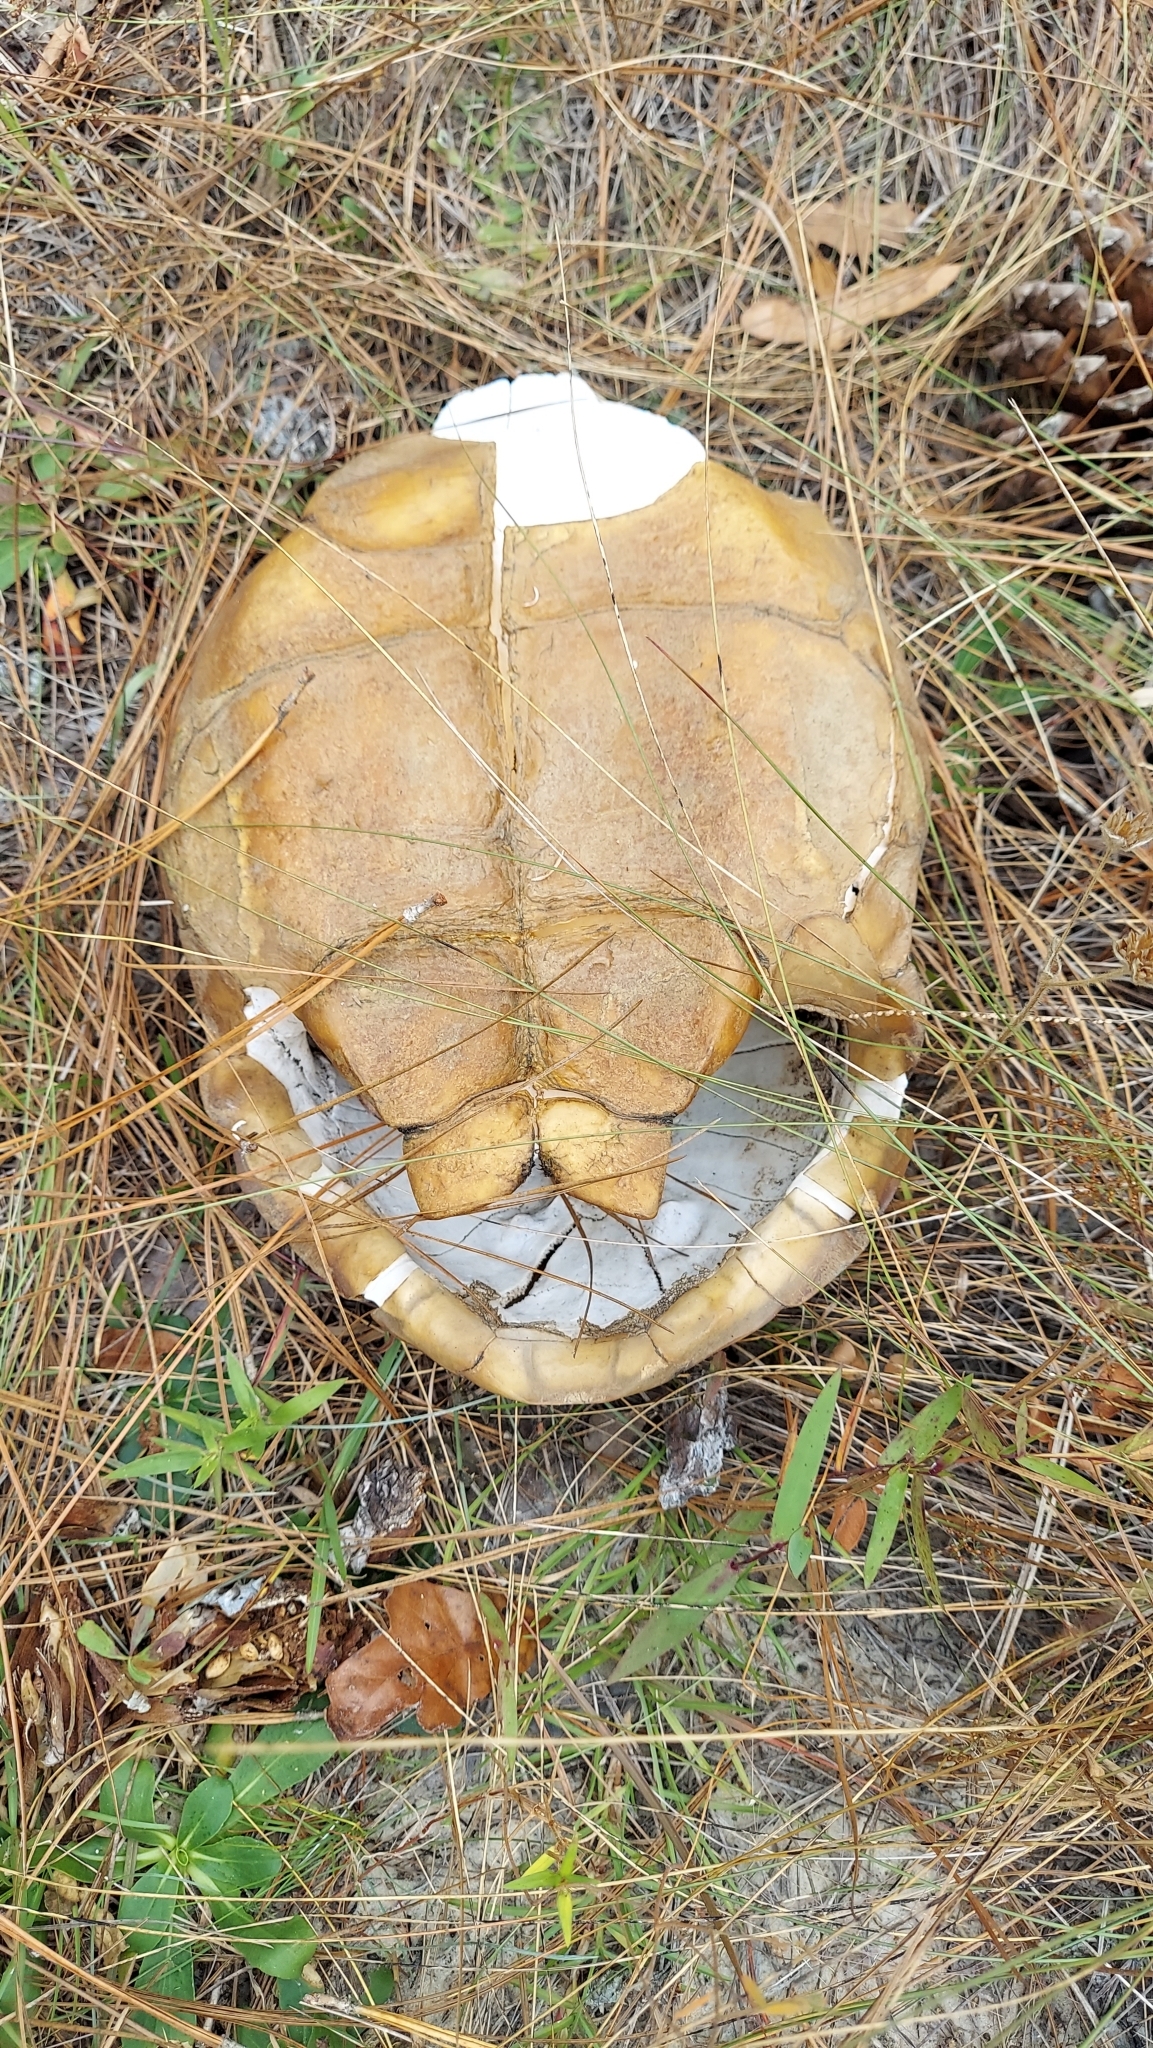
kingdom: Animalia
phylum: Chordata
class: Testudines
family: Testudinidae
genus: Gopherus
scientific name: Gopherus polyphemus
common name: Florida gopher tortoise
